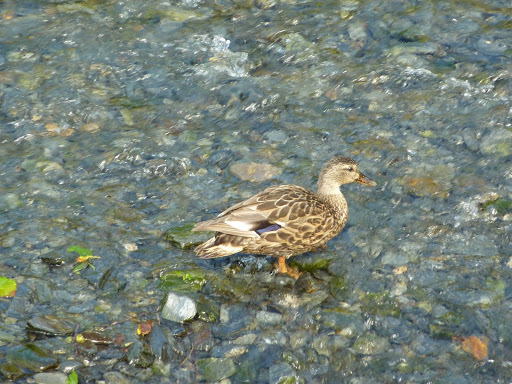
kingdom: Animalia
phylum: Chordata
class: Aves
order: Anseriformes
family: Anatidae
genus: Anas
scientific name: Anas platyrhynchos
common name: Mallard
